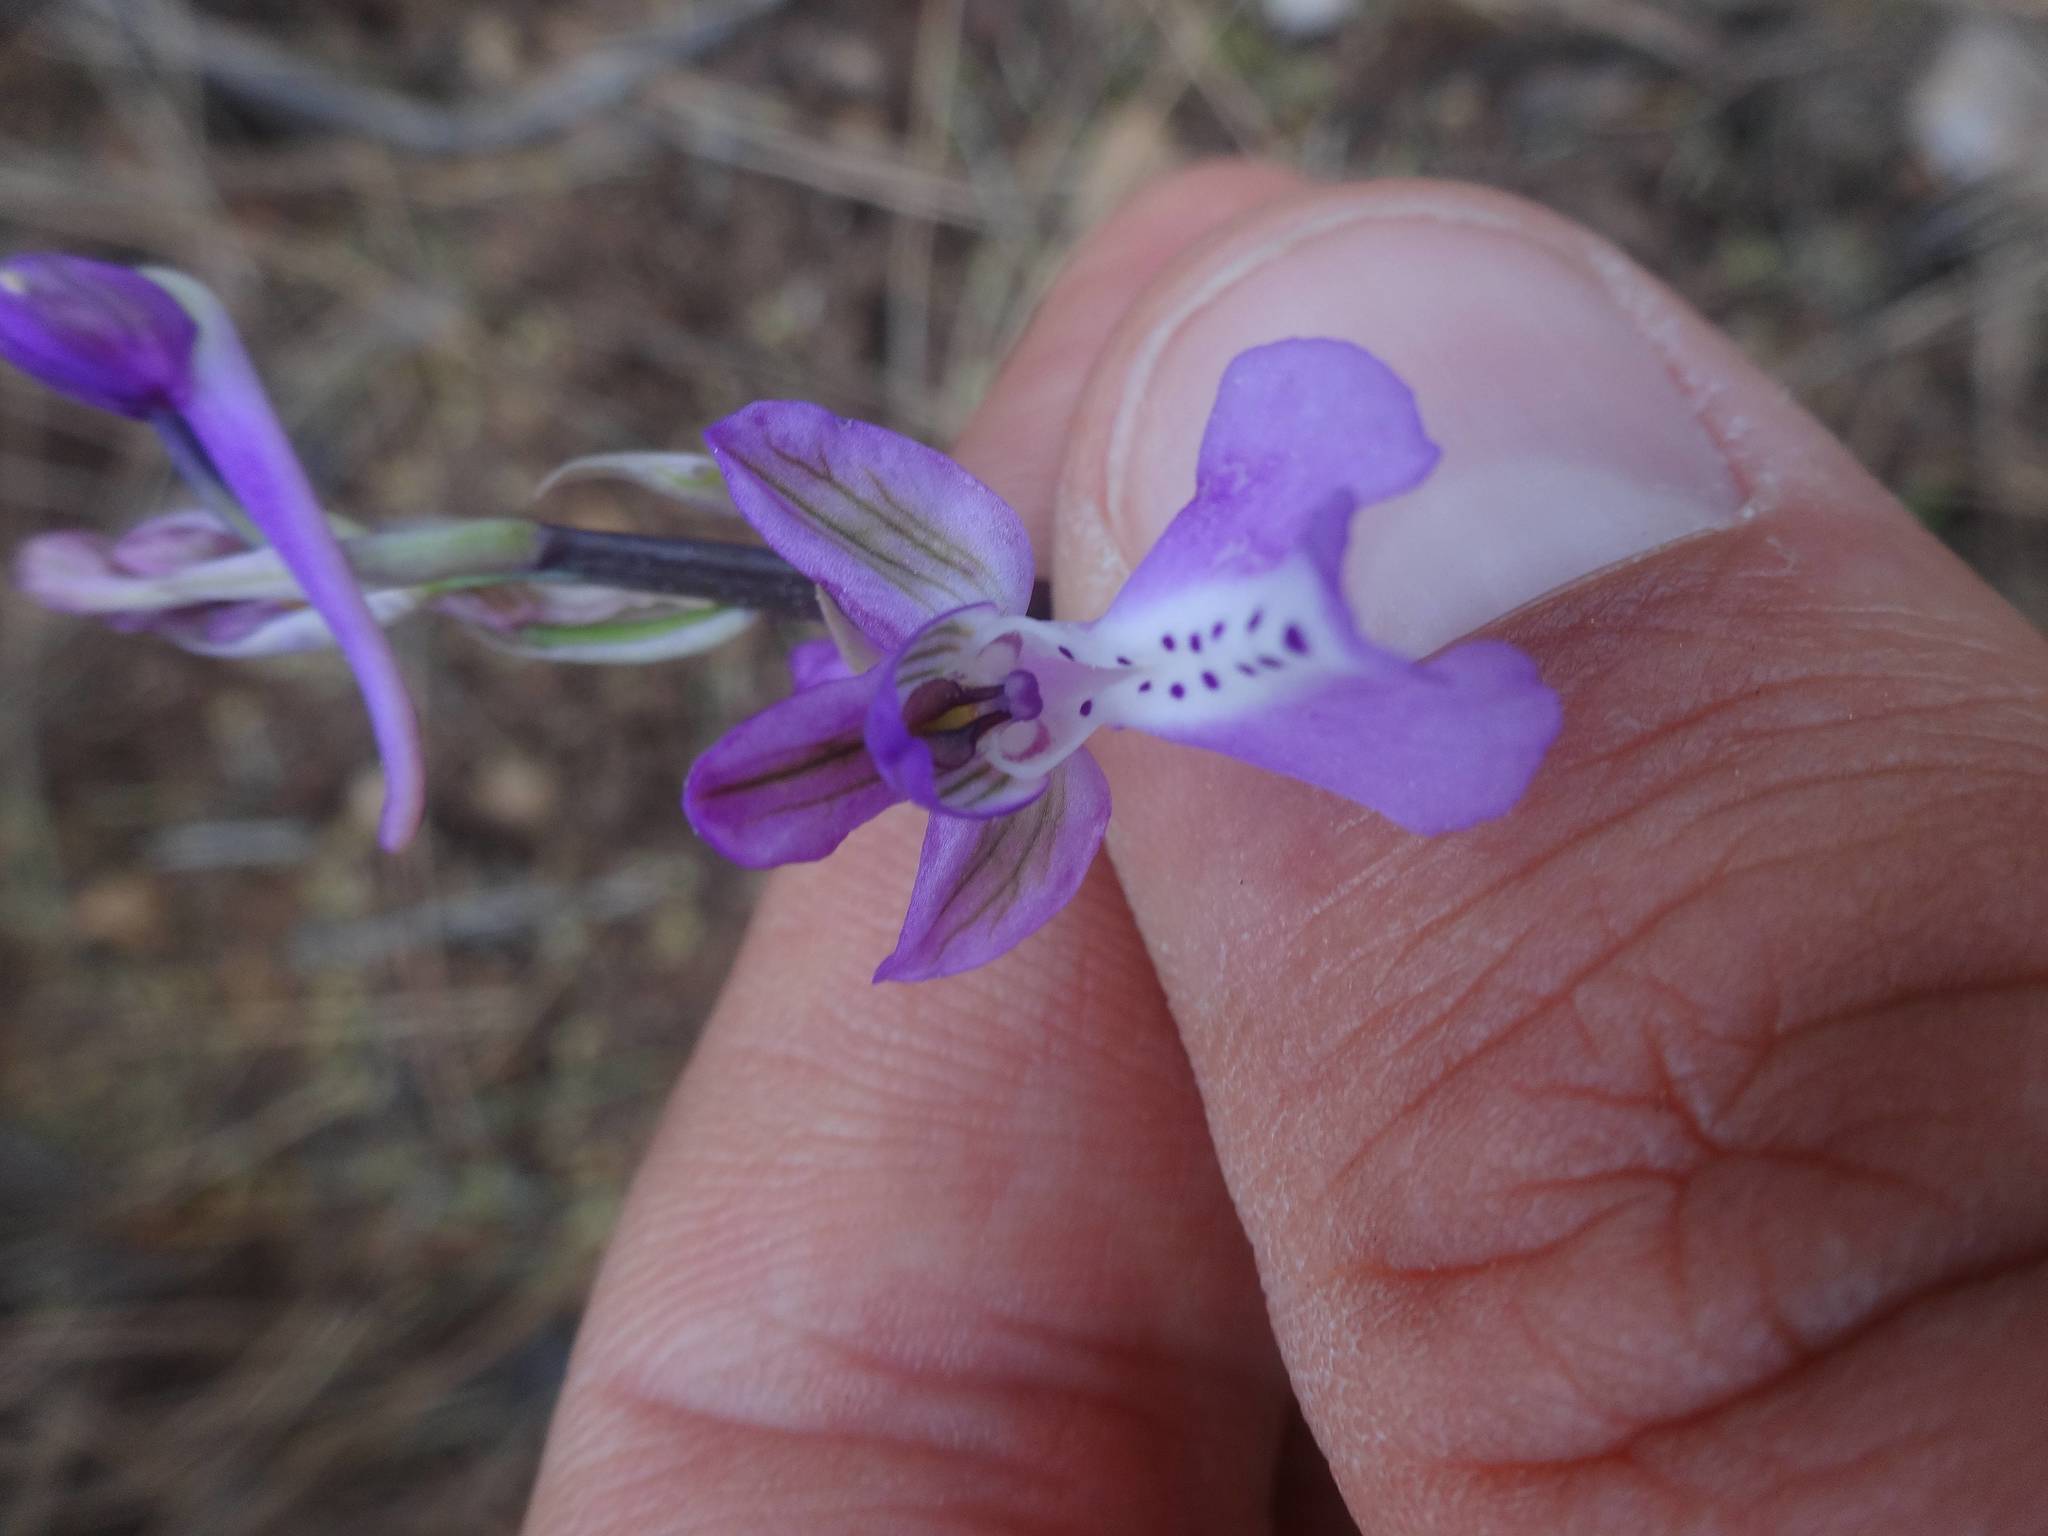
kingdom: Plantae
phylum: Tracheophyta
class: Liliopsida
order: Asparagales
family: Orchidaceae
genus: Orchis
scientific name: Orchis anatolica
